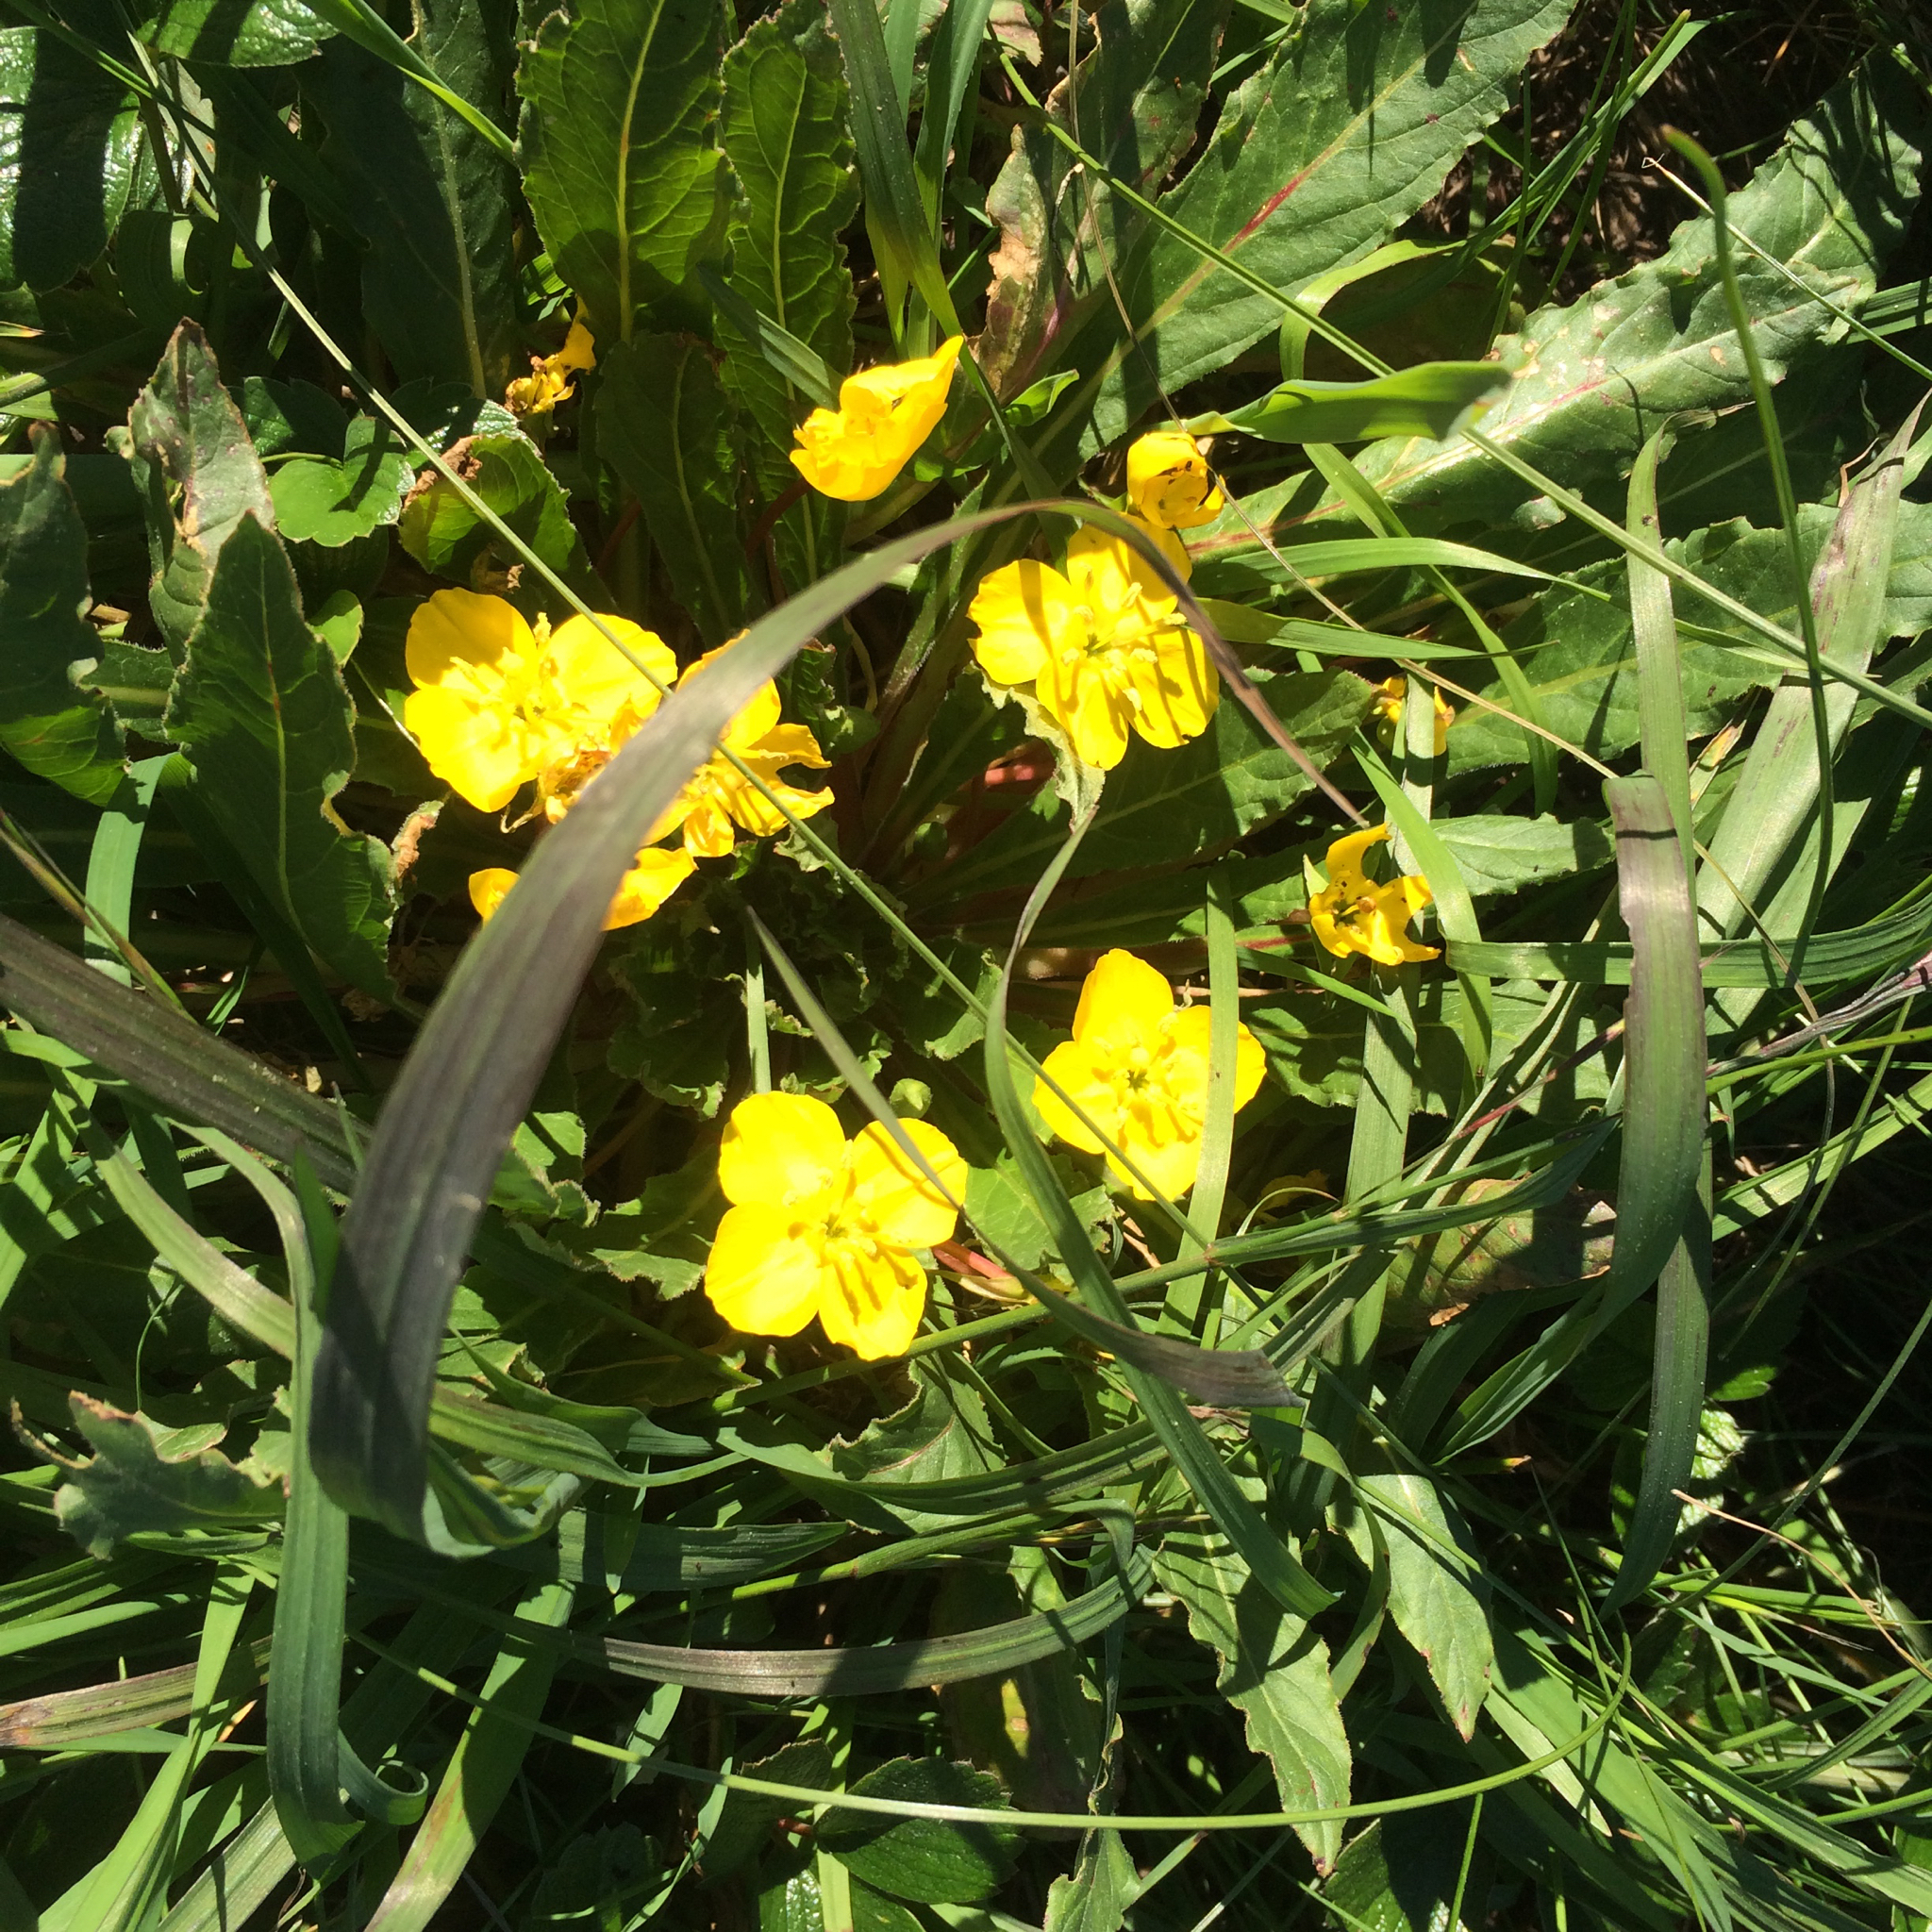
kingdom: Plantae
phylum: Tracheophyta
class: Magnoliopsida
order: Myrtales
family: Onagraceae
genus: Taraxia
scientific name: Taraxia ovata
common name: Goldeneggs
